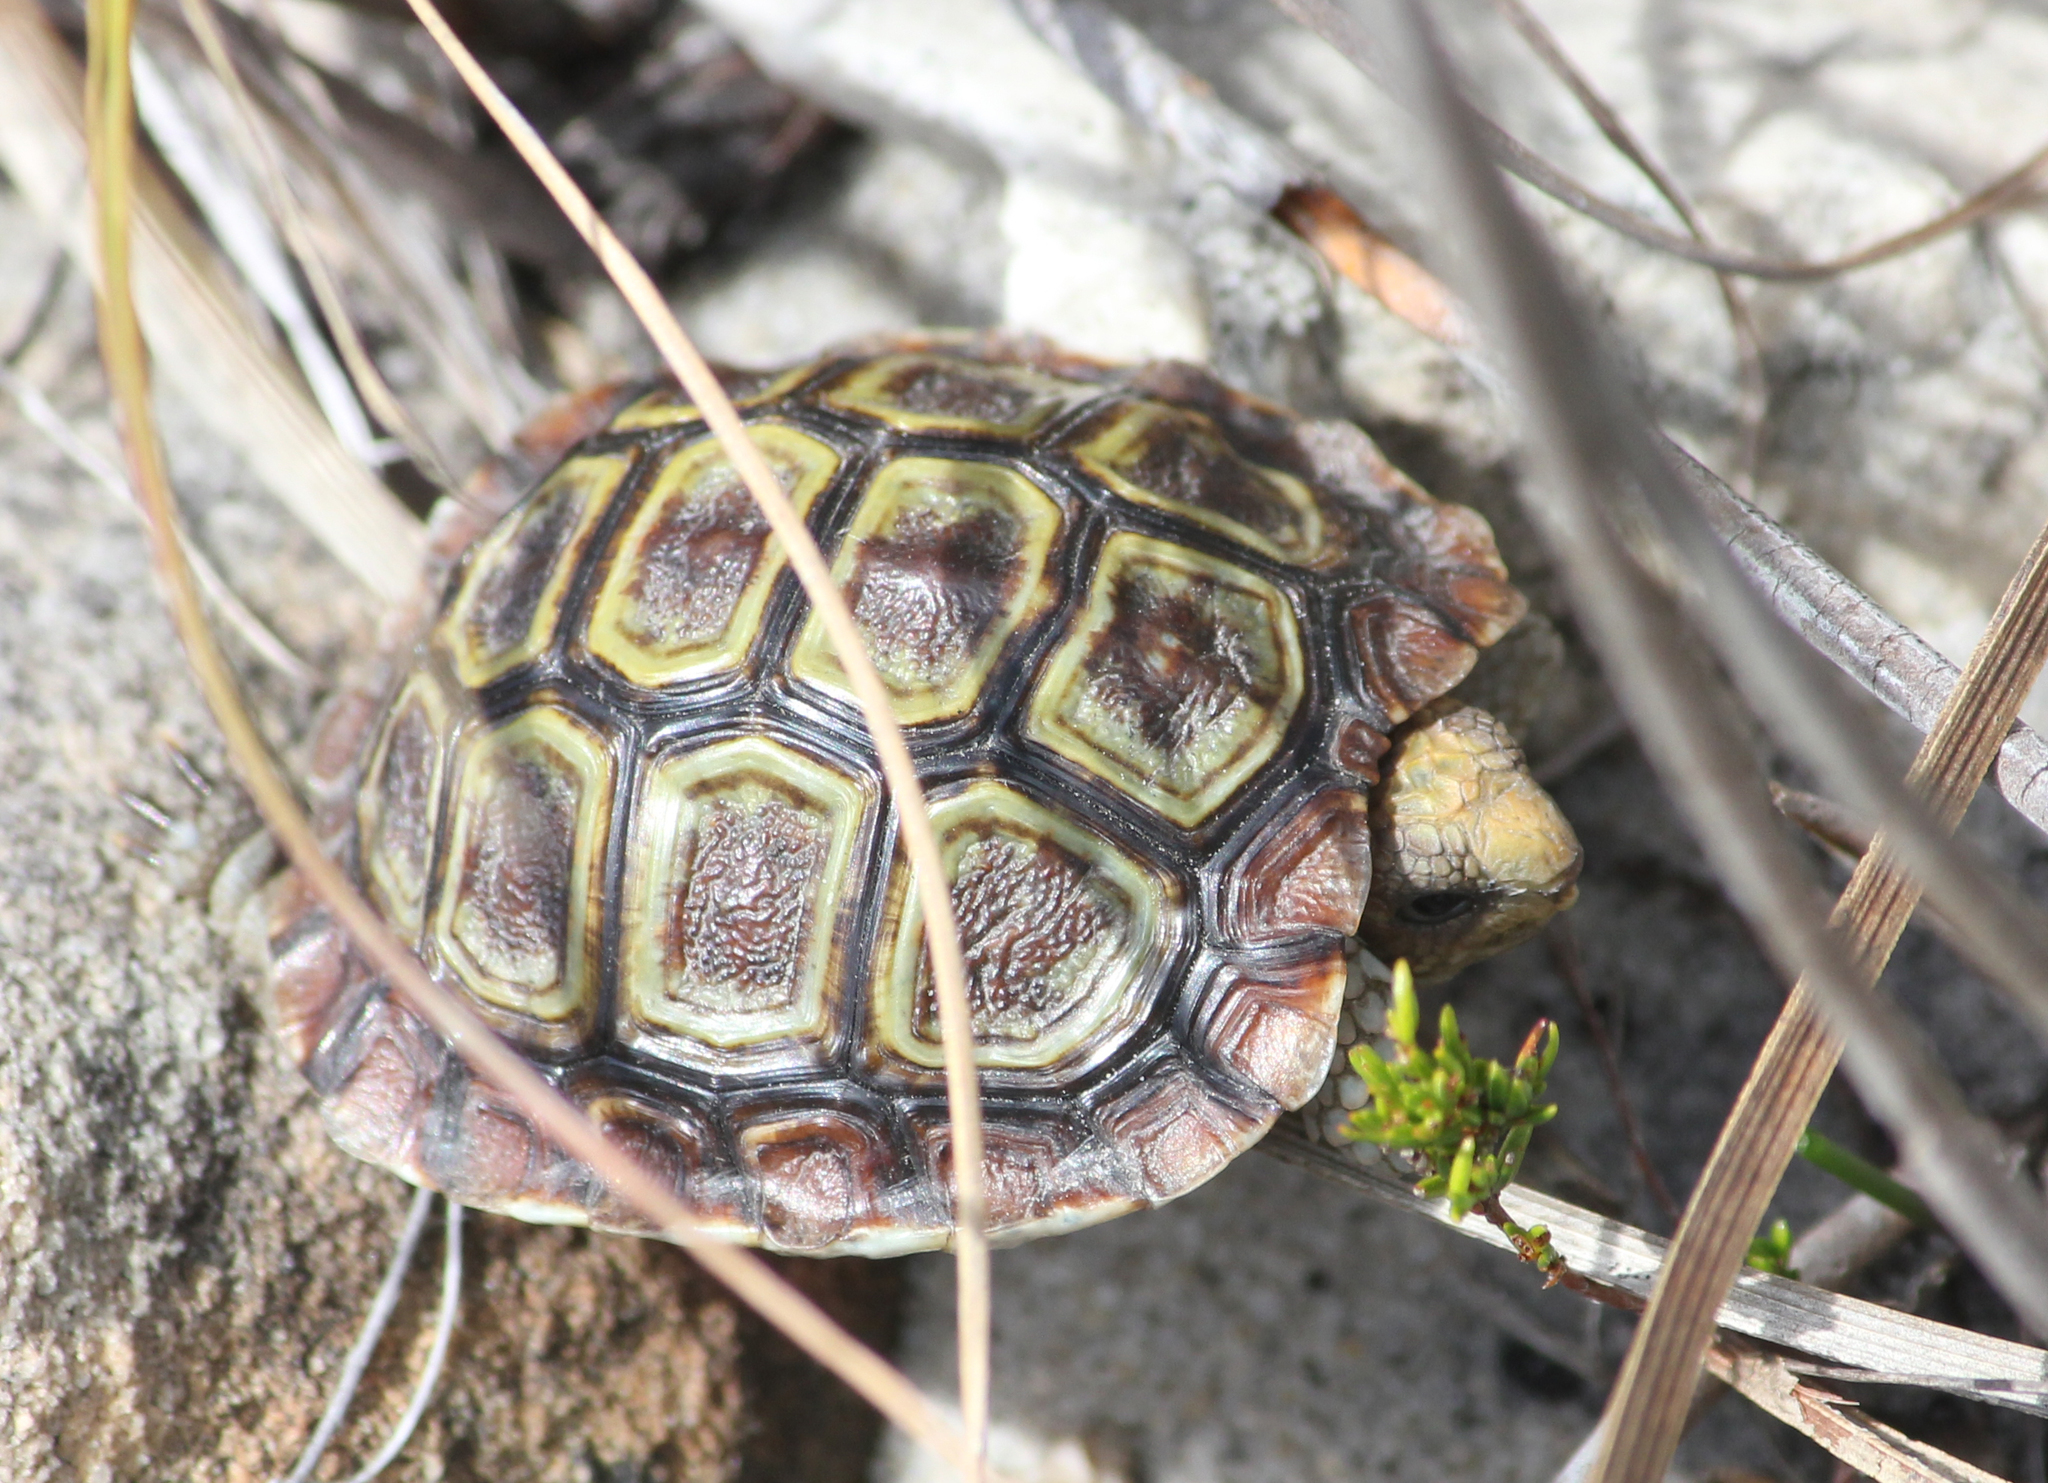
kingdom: Animalia
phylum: Chordata
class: Testudines
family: Testudinidae
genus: Homopus
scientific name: Homopus areolatus
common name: Parrot-beaked tortoise
